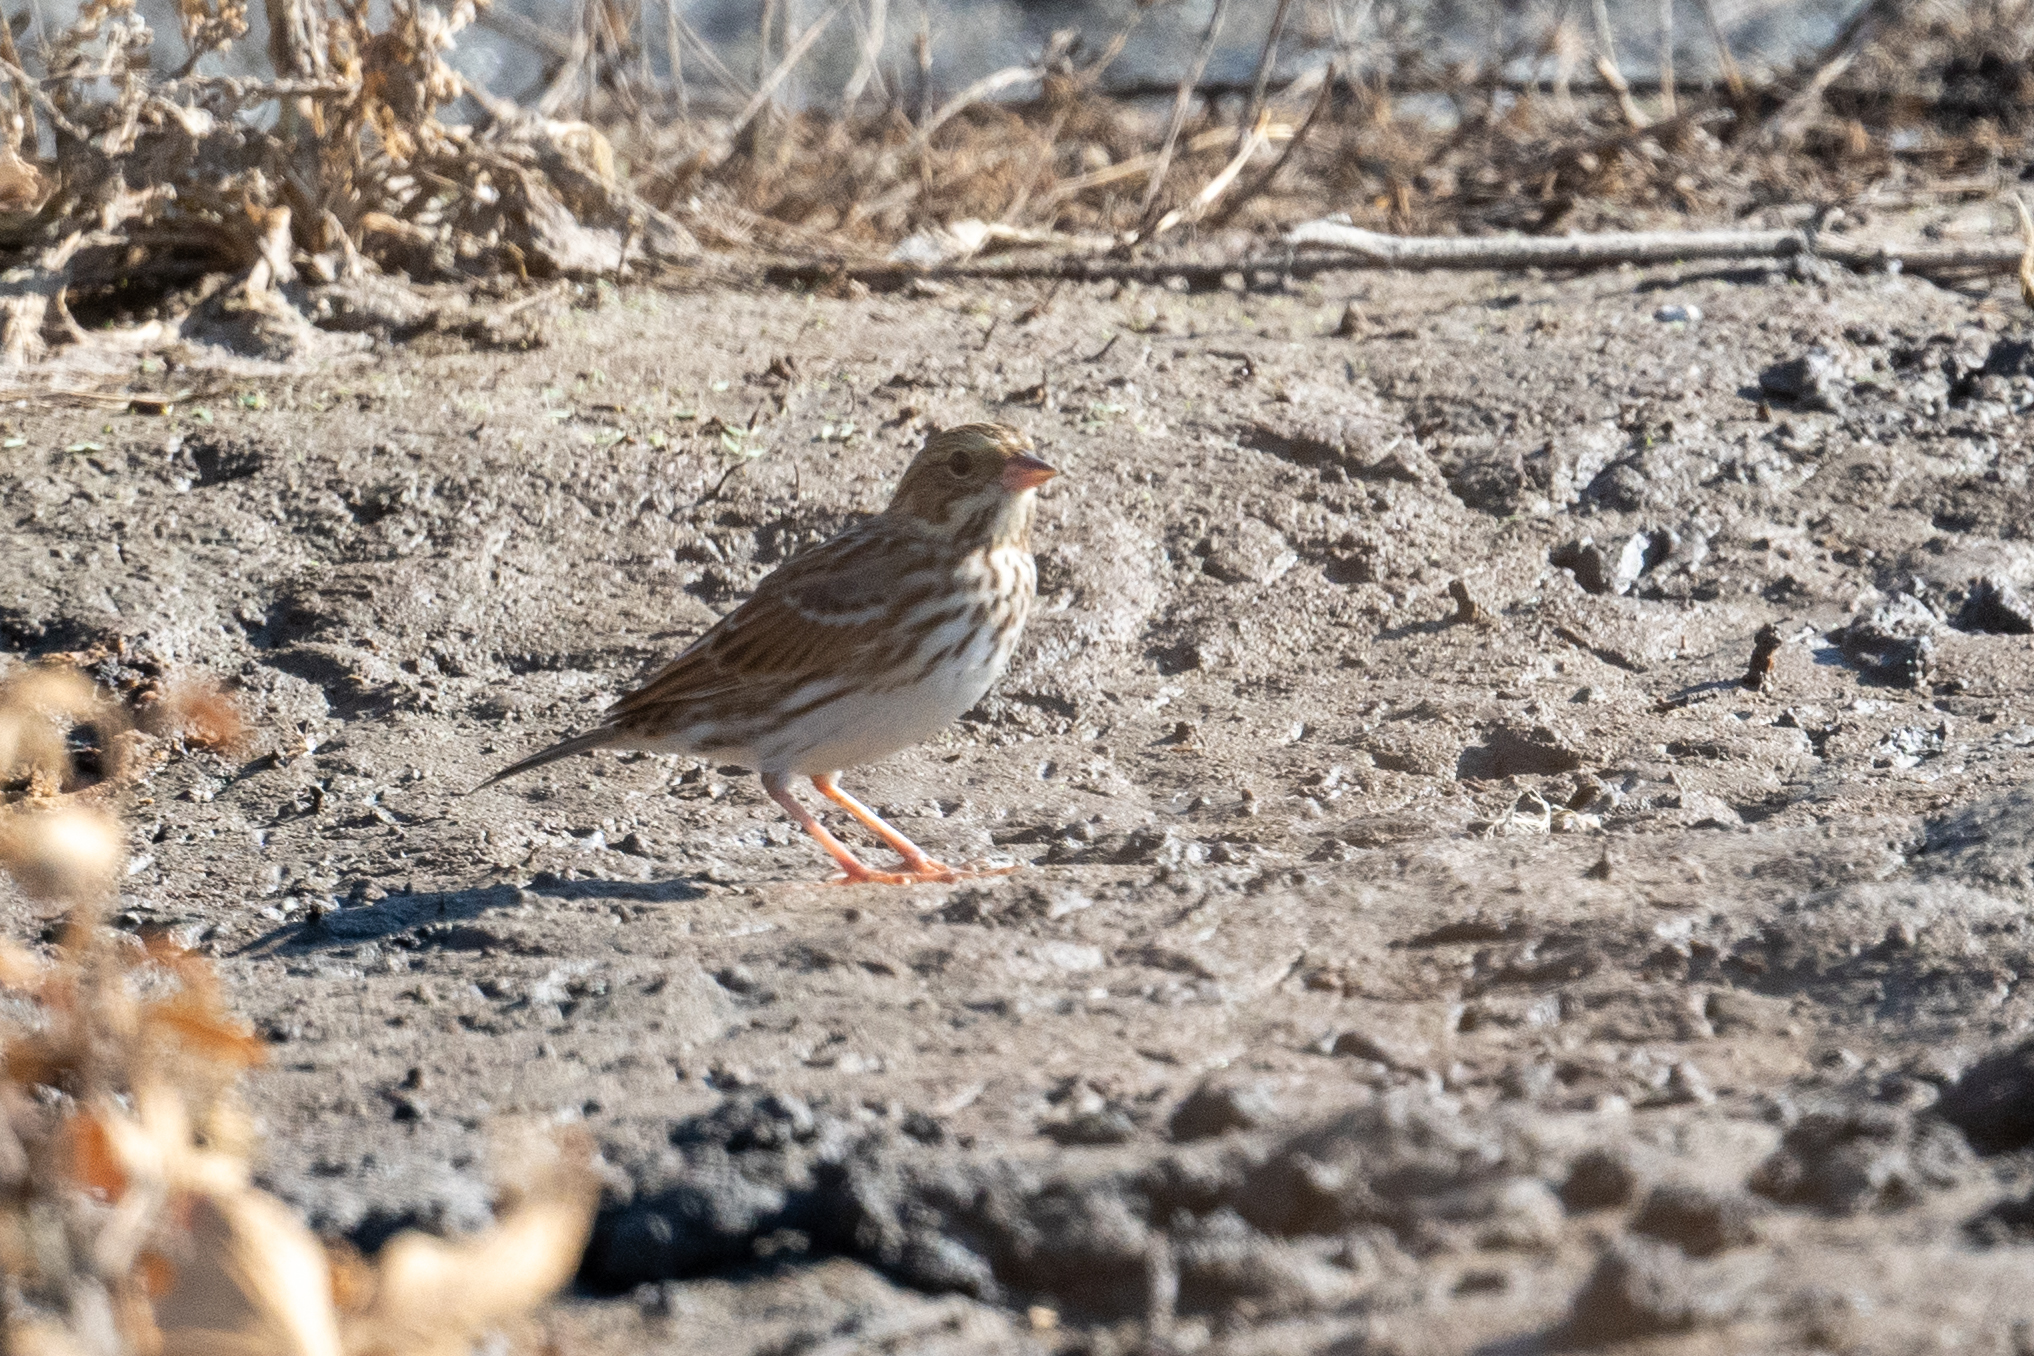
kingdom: Animalia
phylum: Chordata
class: Aves
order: Passeriformes
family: Passerellidae
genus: Passerculus
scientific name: Passerculus sandwichensis
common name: Savannah sparrow
